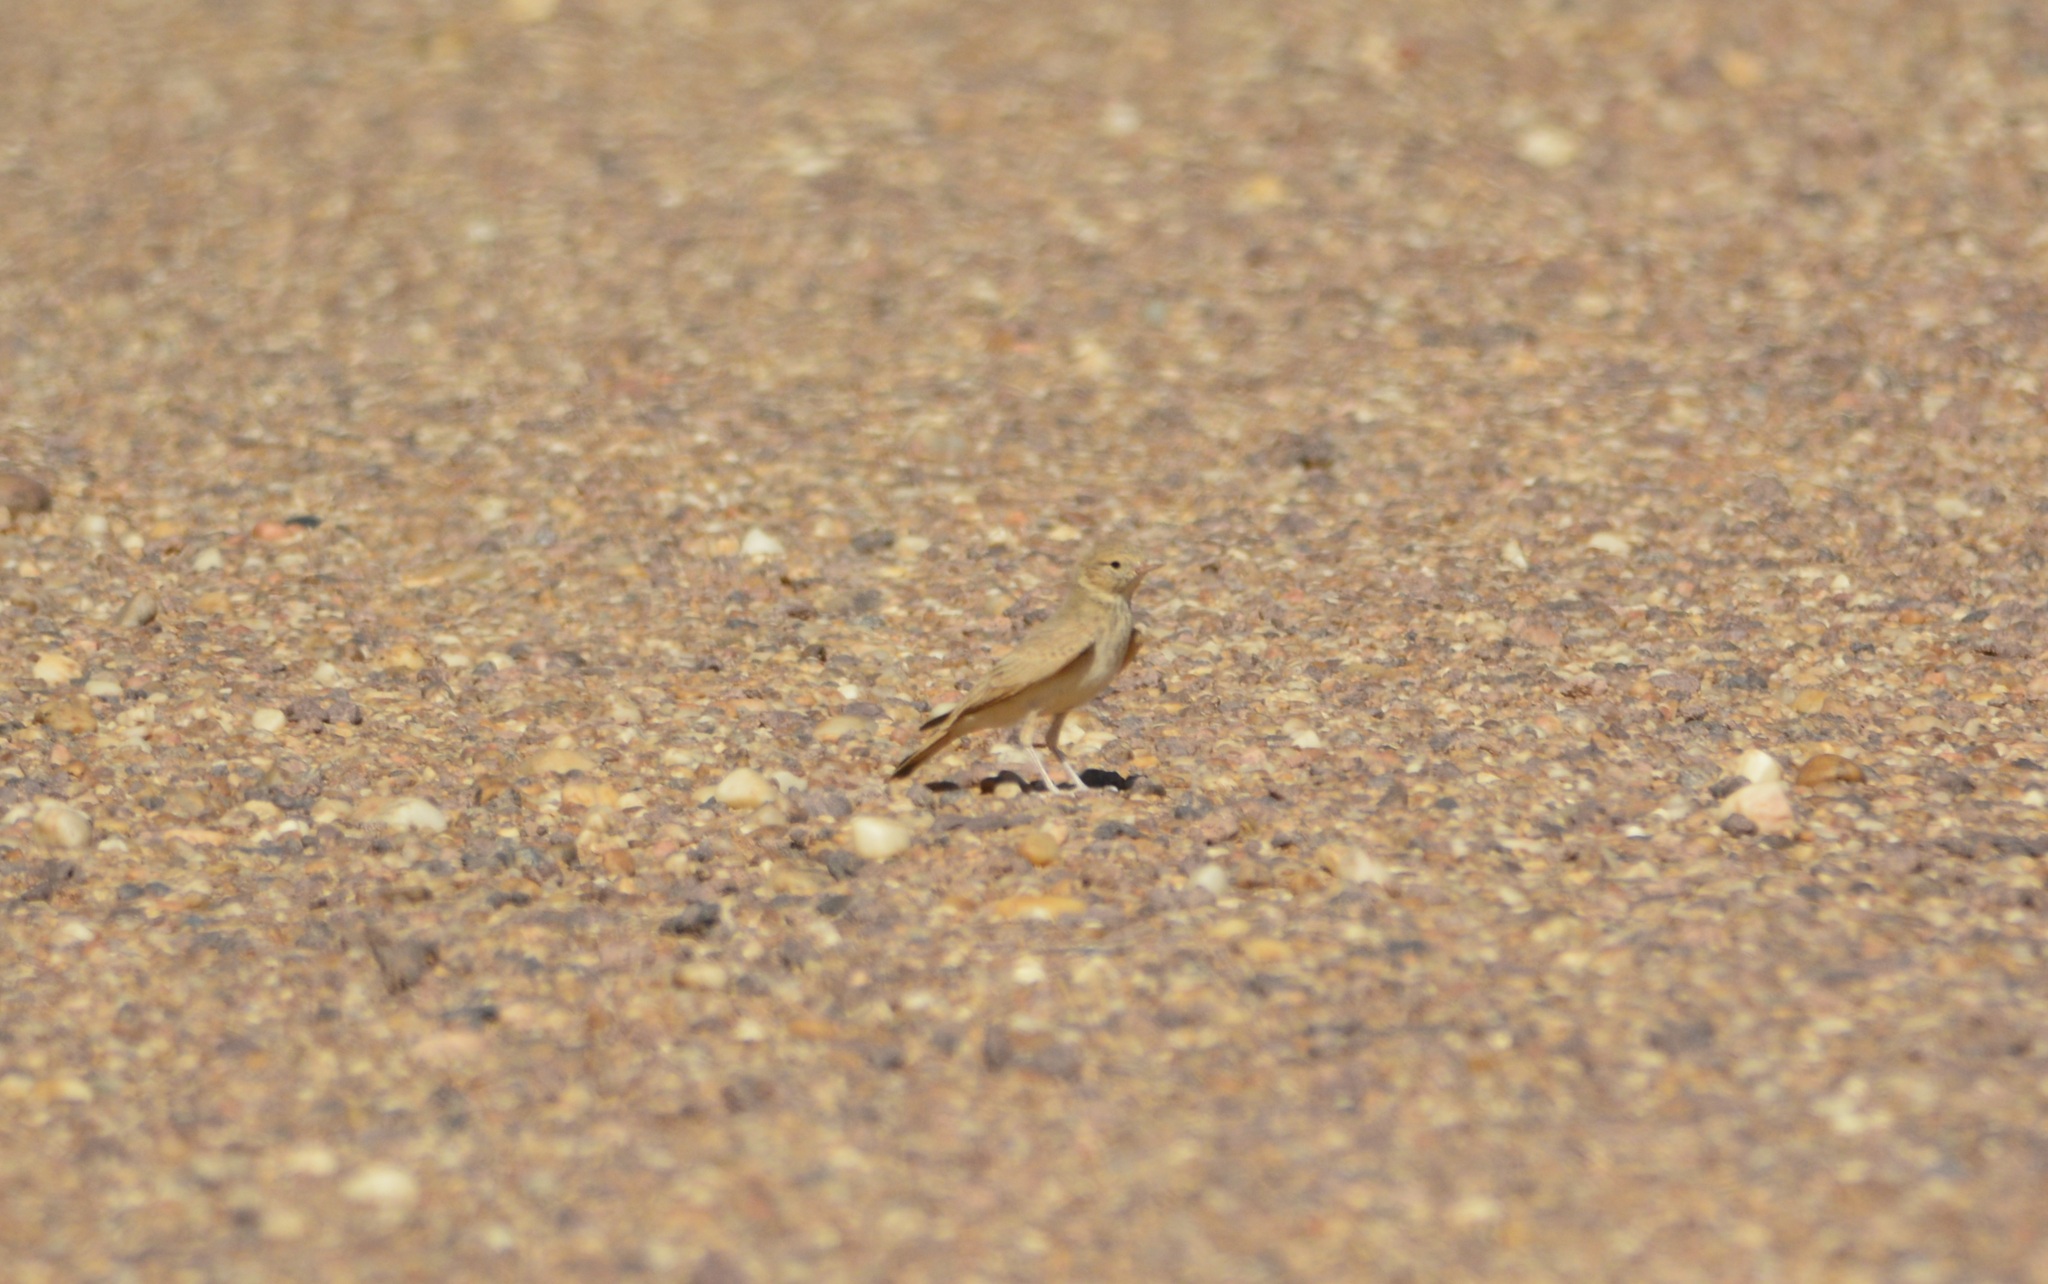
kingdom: Animalia
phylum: Chordata
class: Aves
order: Passeriformes
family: Alaudidae
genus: Ammomanes
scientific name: Ammomanes cinctura
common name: Bar-tailed lark
